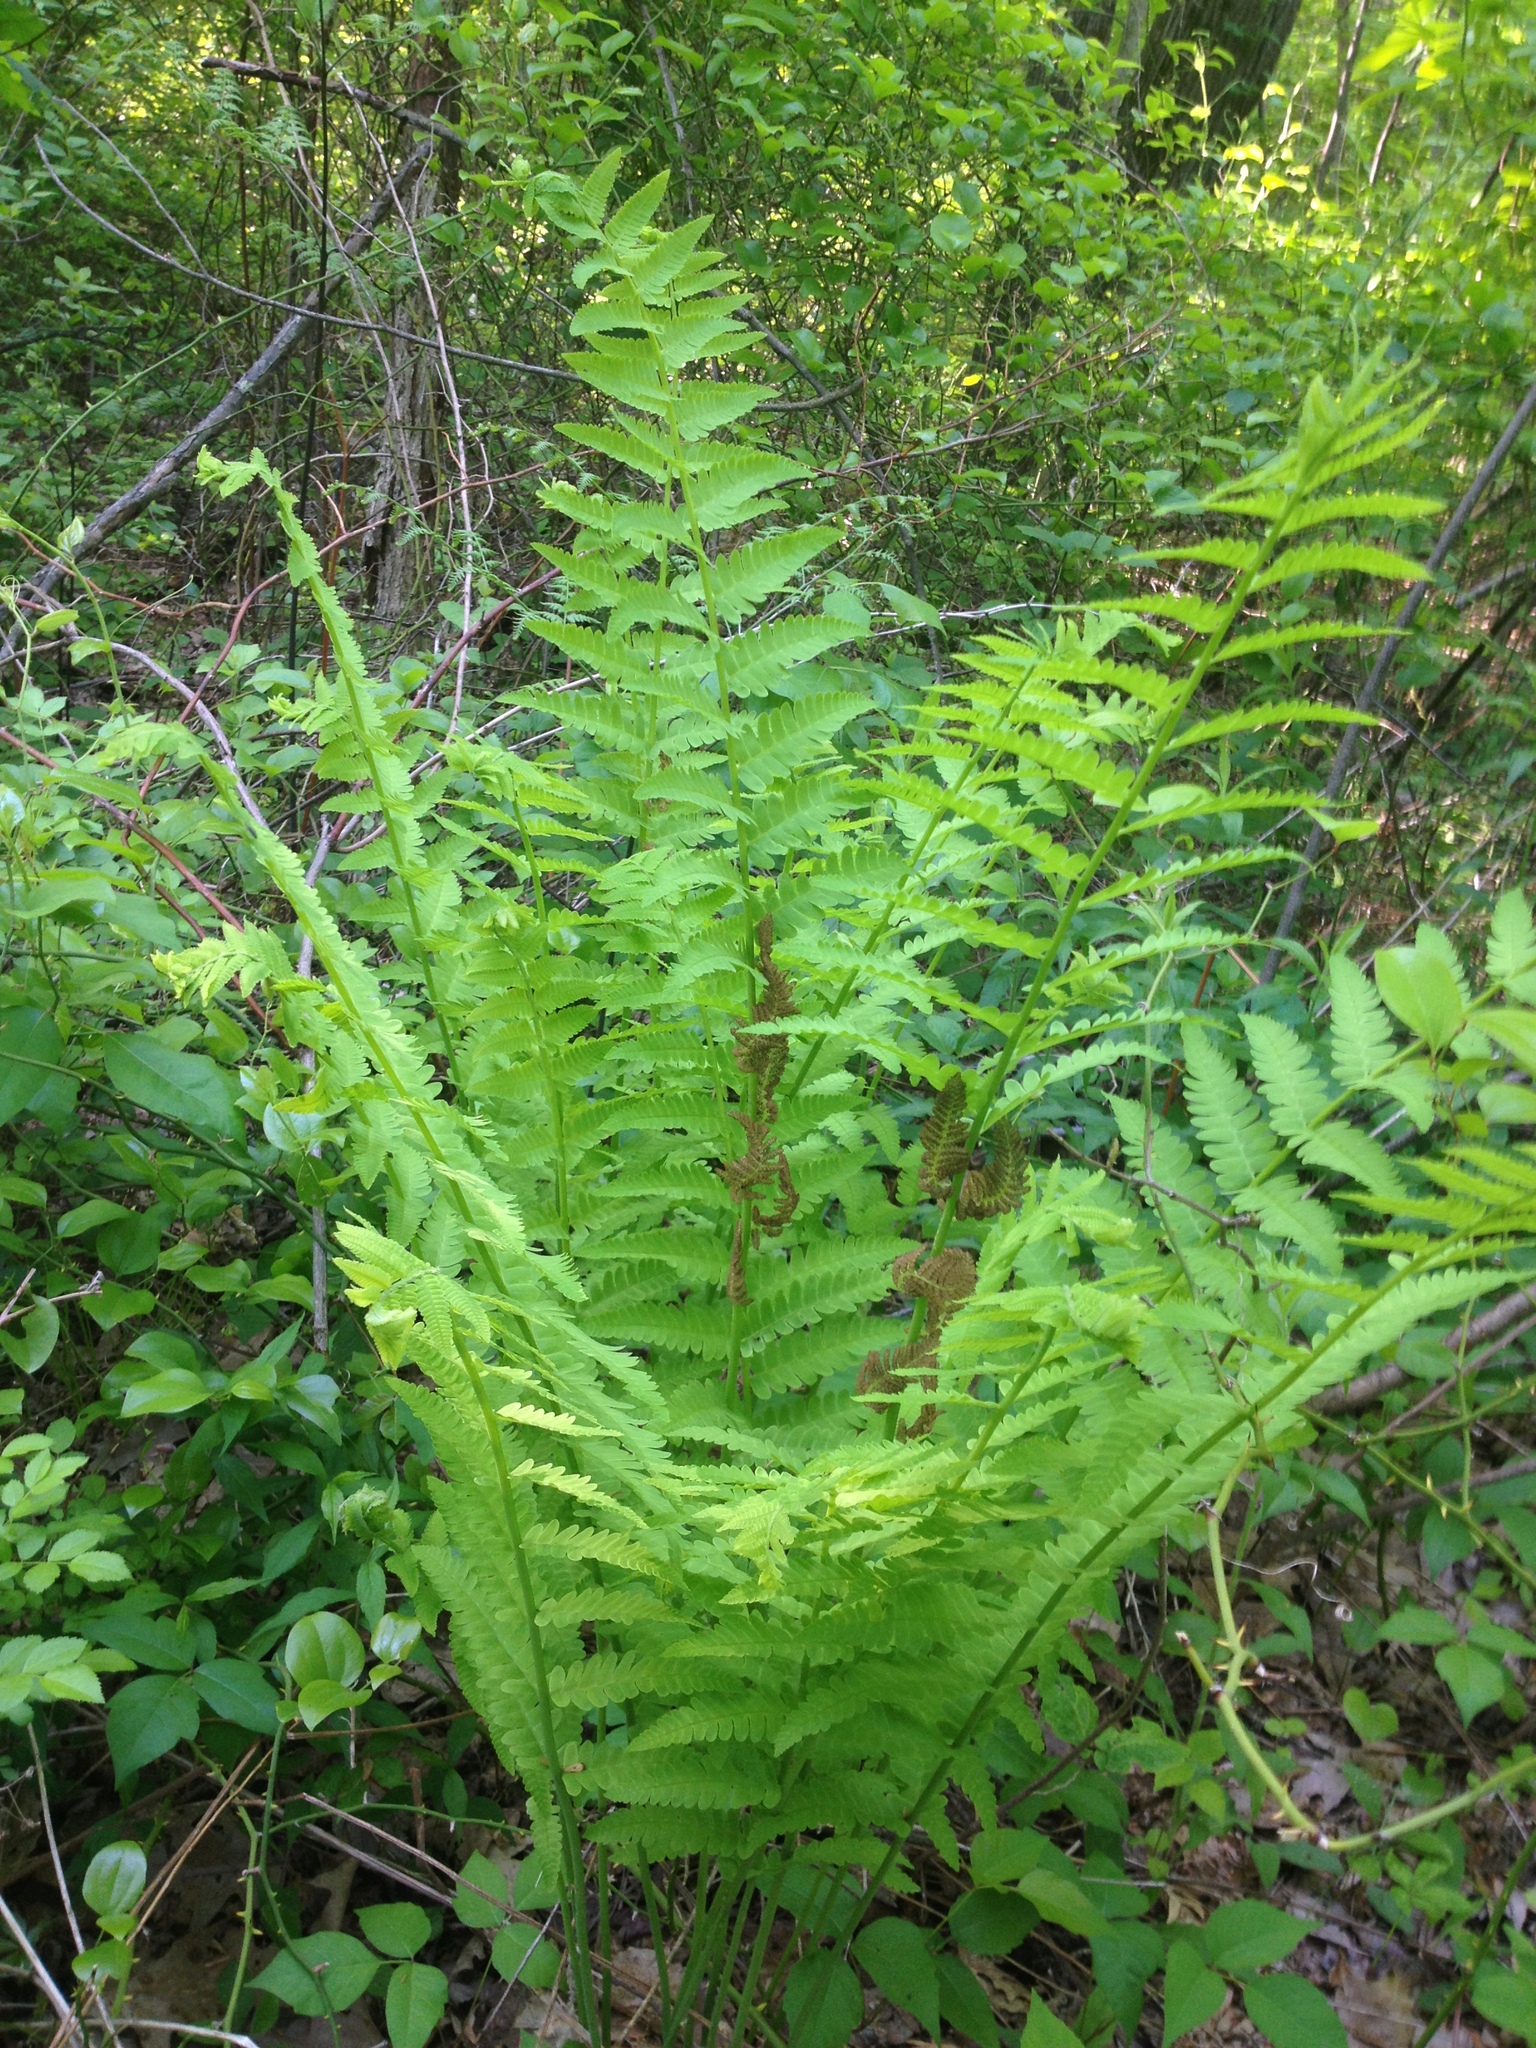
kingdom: Plantae
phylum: Tracheophyta
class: Polypodiopsida
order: Osmundales
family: Osmundaceae
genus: Claytosmunda
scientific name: Claytosmunda claytoniana
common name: Clayton's fern
